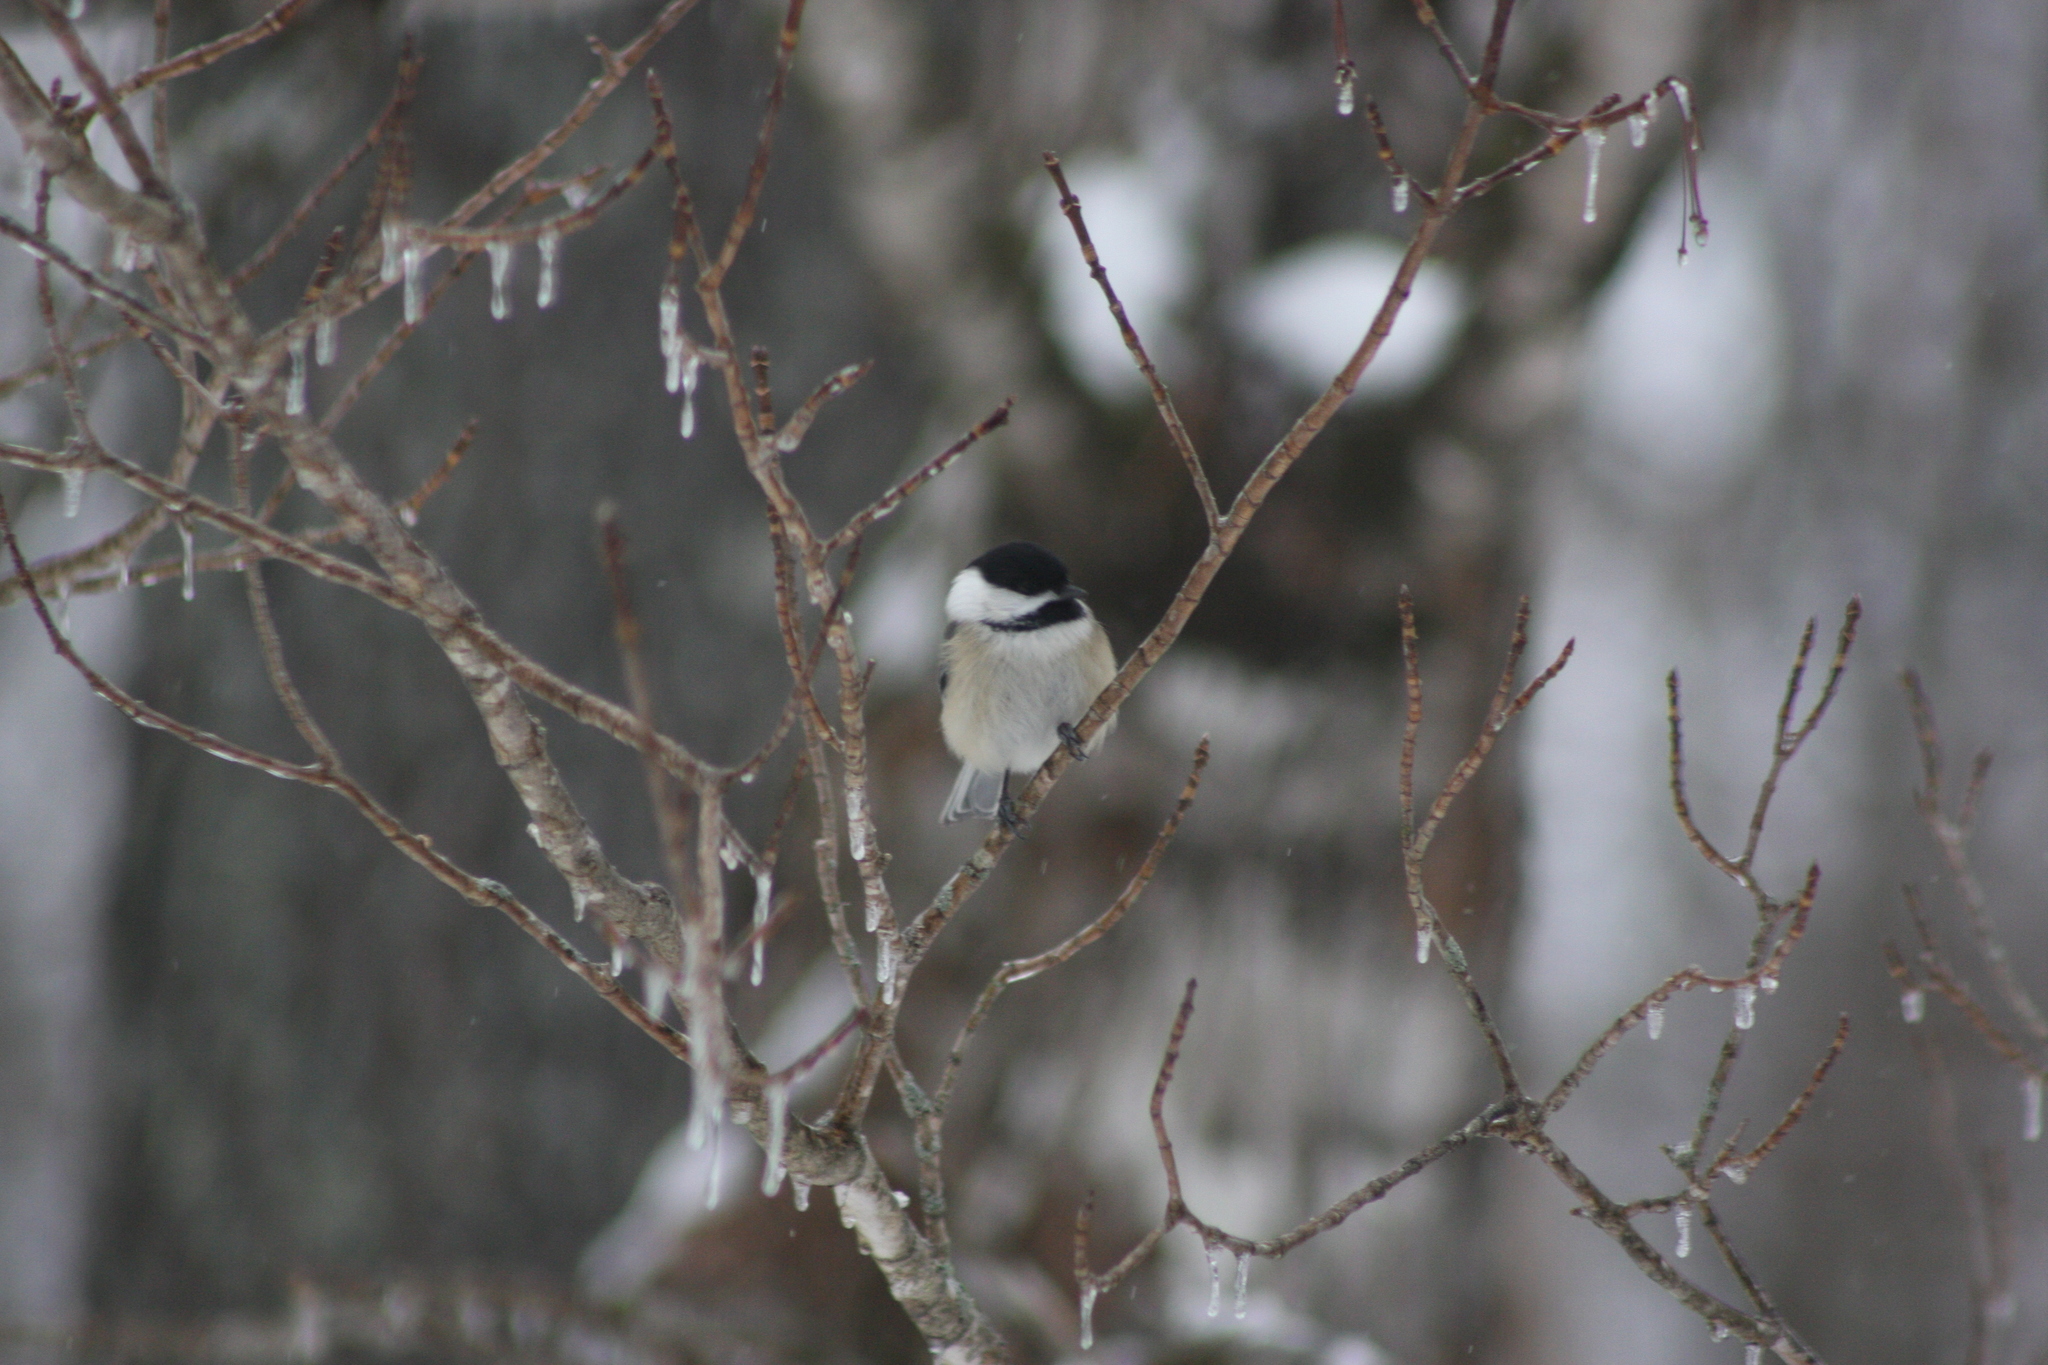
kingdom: Animalia
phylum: Chordata
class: Aves
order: Passeriformes
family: Paridae
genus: Poecile
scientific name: Poecile atricapillus
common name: Black-capped chickadee
